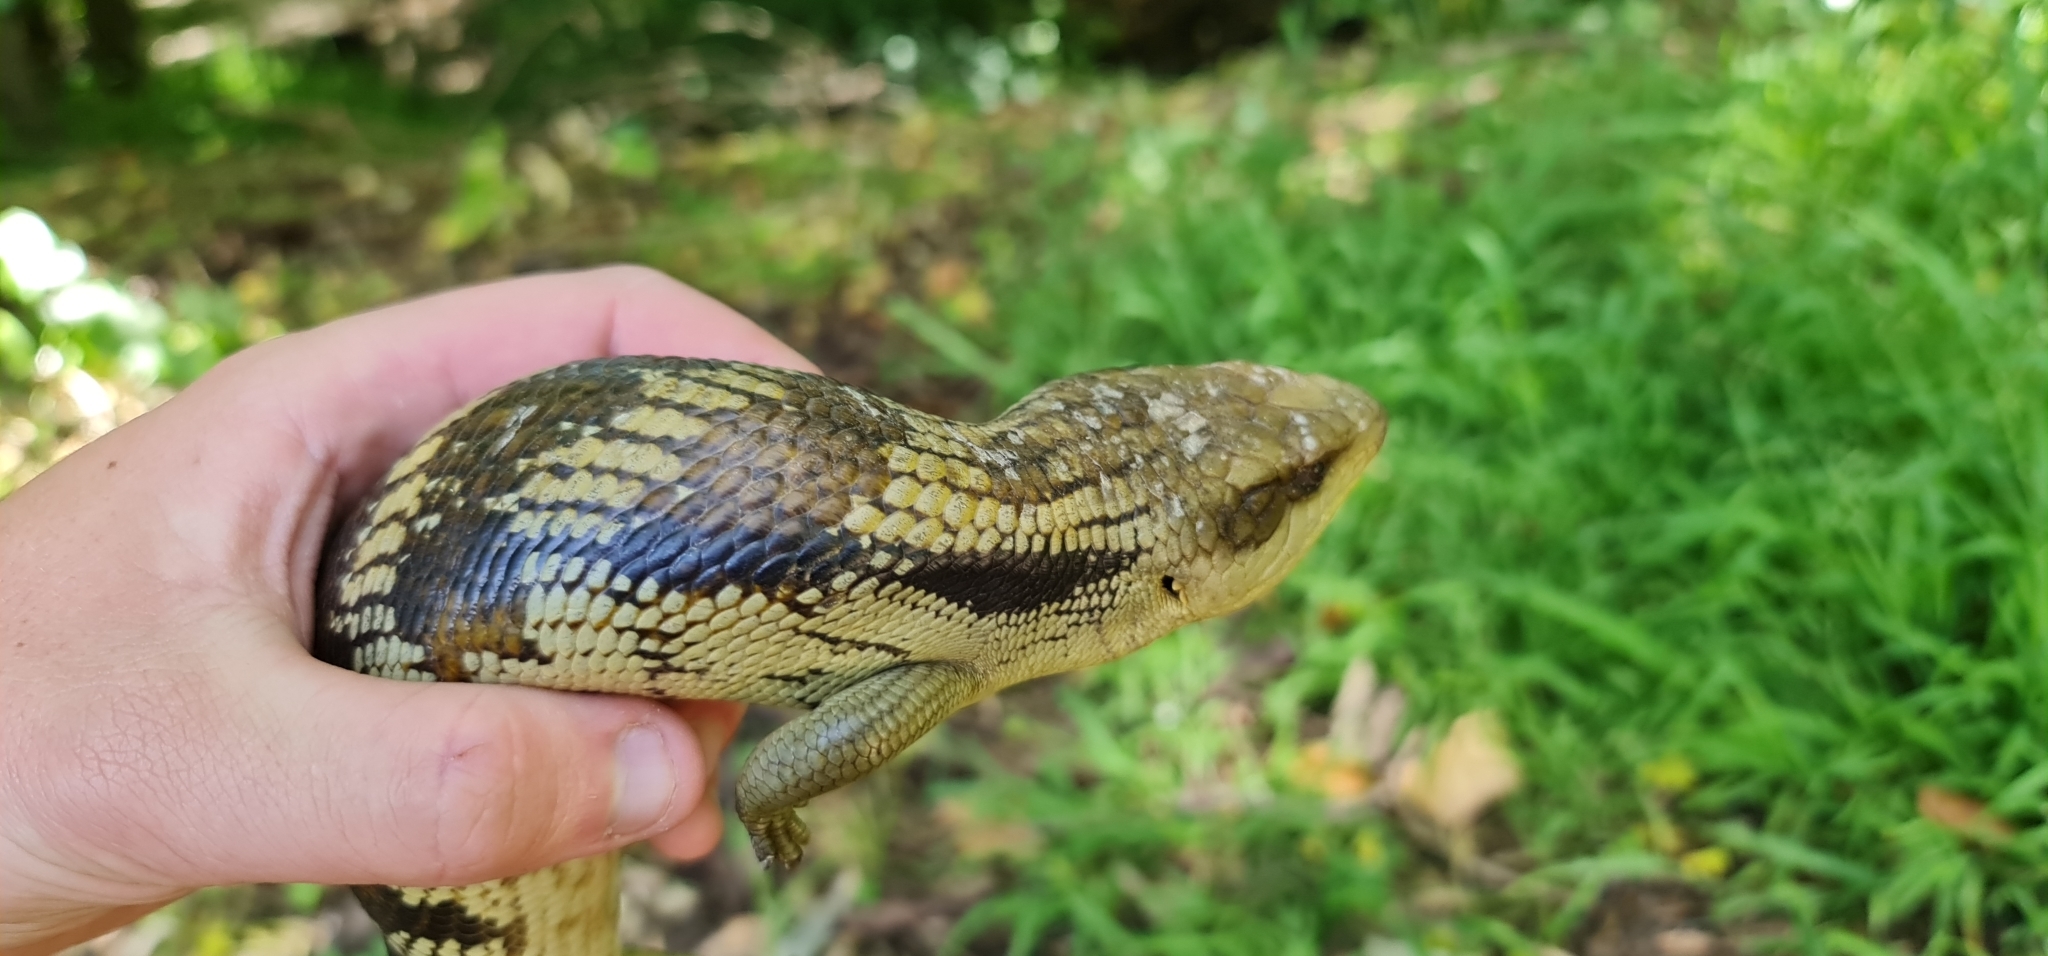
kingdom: Animalia
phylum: Chordata
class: Squamata
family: Scincidae
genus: Tiliqua
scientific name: Tiliqua scincoides
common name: Common bluetongue
